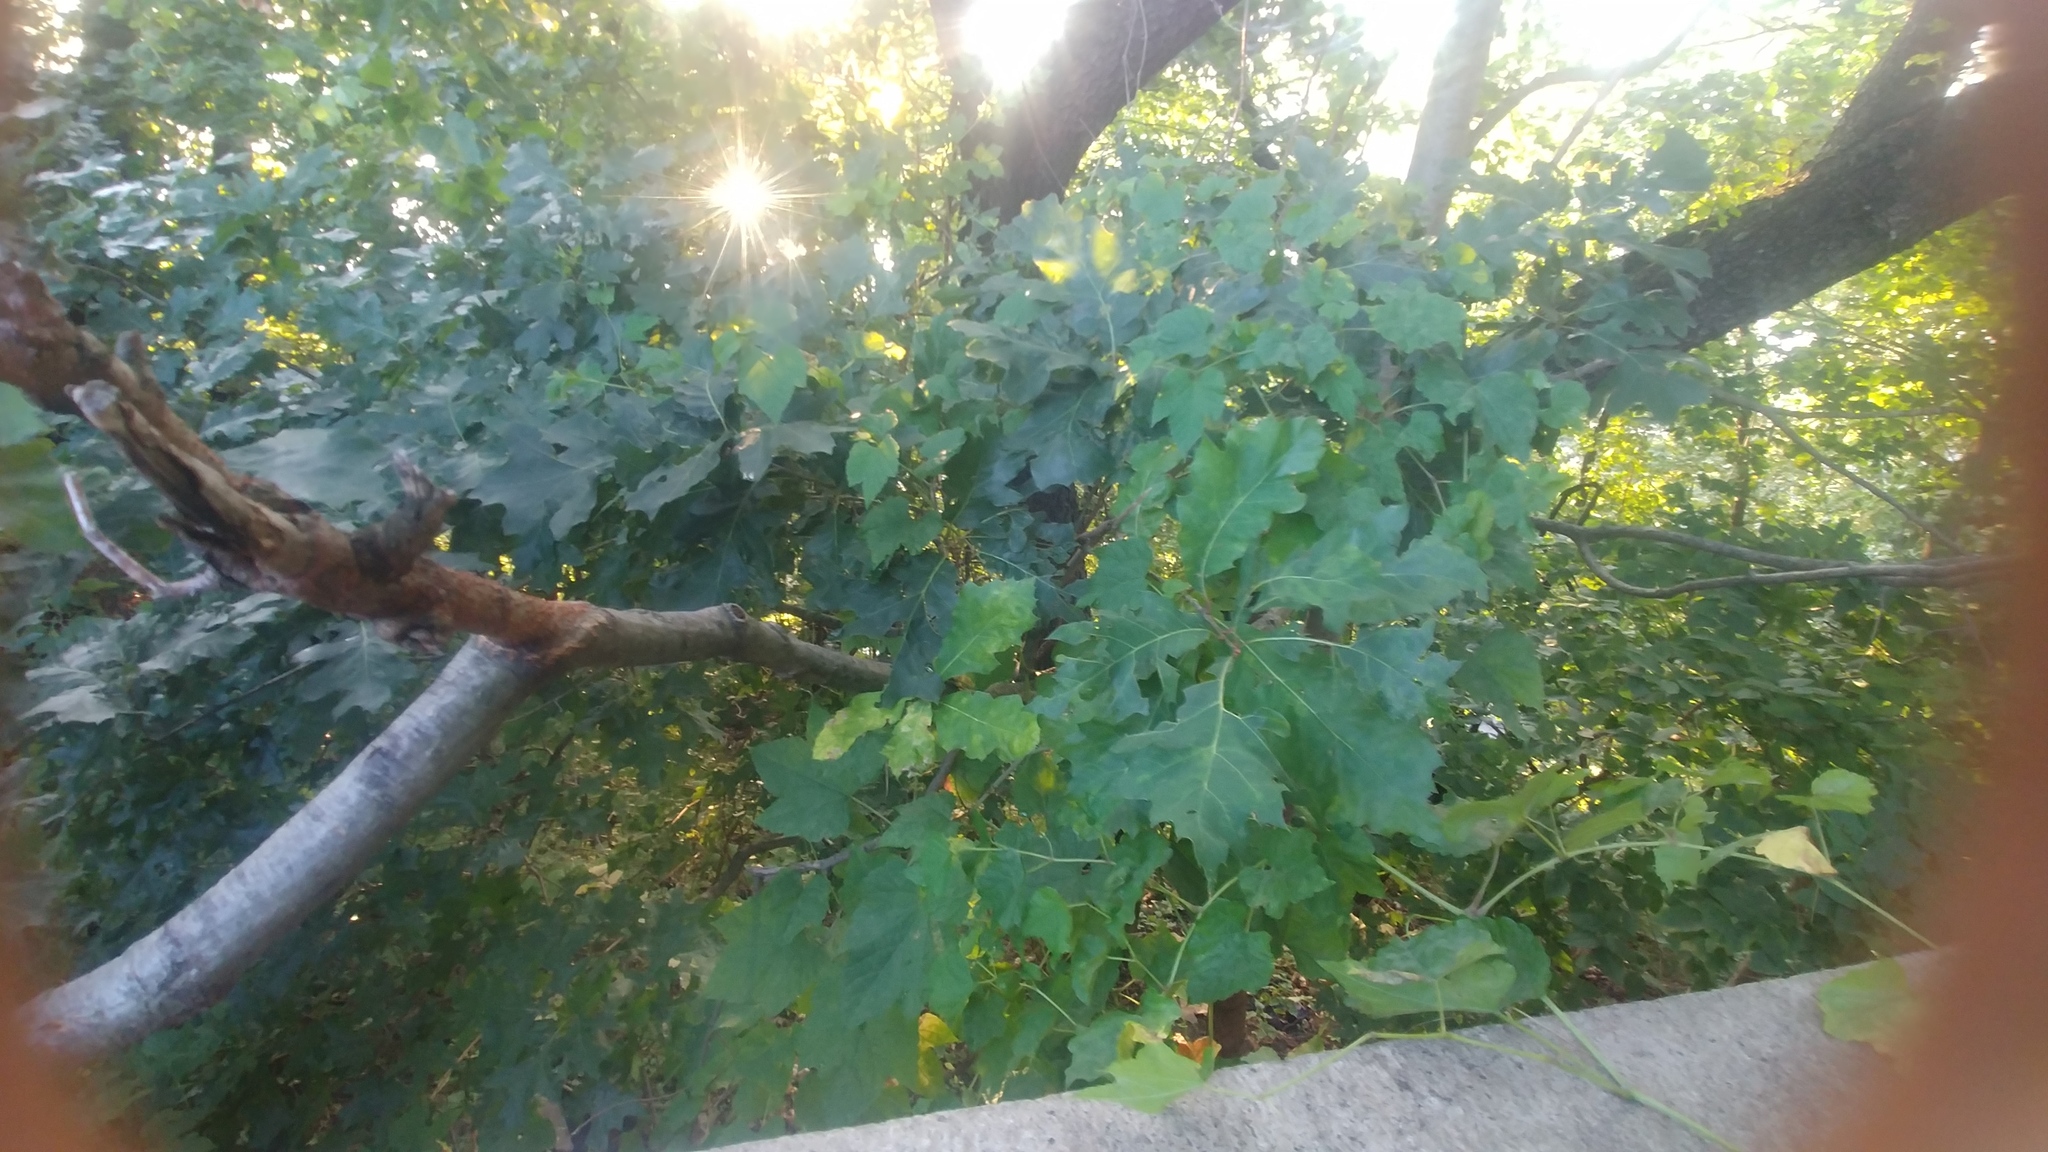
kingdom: Plantae
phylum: Tracheophyta
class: Magnoliopsida
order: Vitales
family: Vitaceae
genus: Ampelopsis
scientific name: Ampelopsis glandulosa
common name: Amur peppervine
